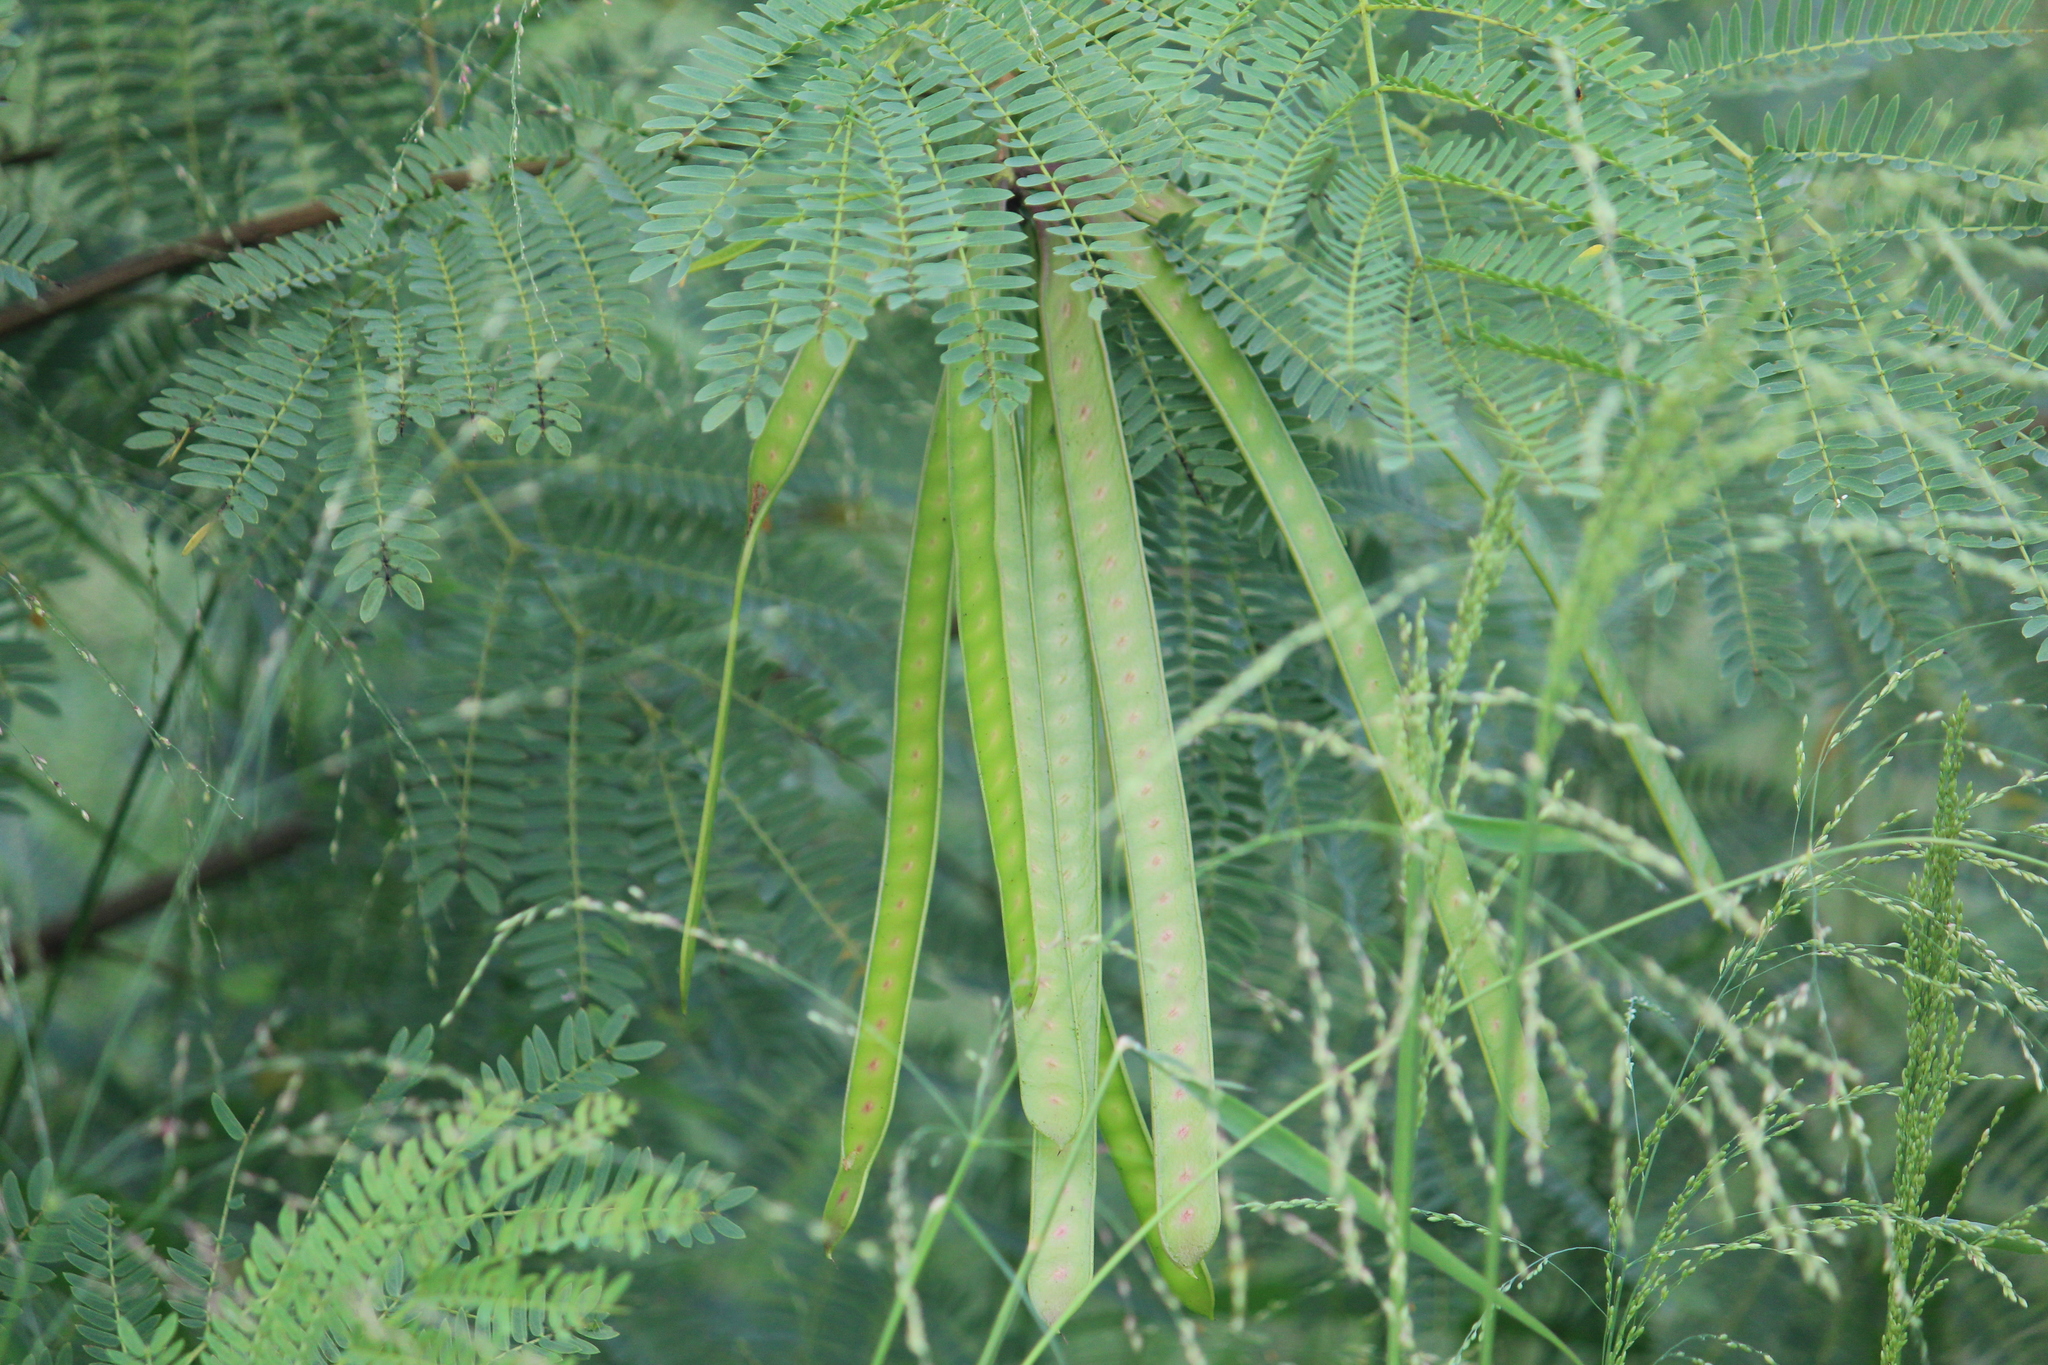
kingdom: Plantae
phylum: Tracheophyta
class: Magnoliopsida
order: Fabales
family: Fabaceae
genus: Leucaena
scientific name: Leucaena leucocephala
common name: White leadtree
